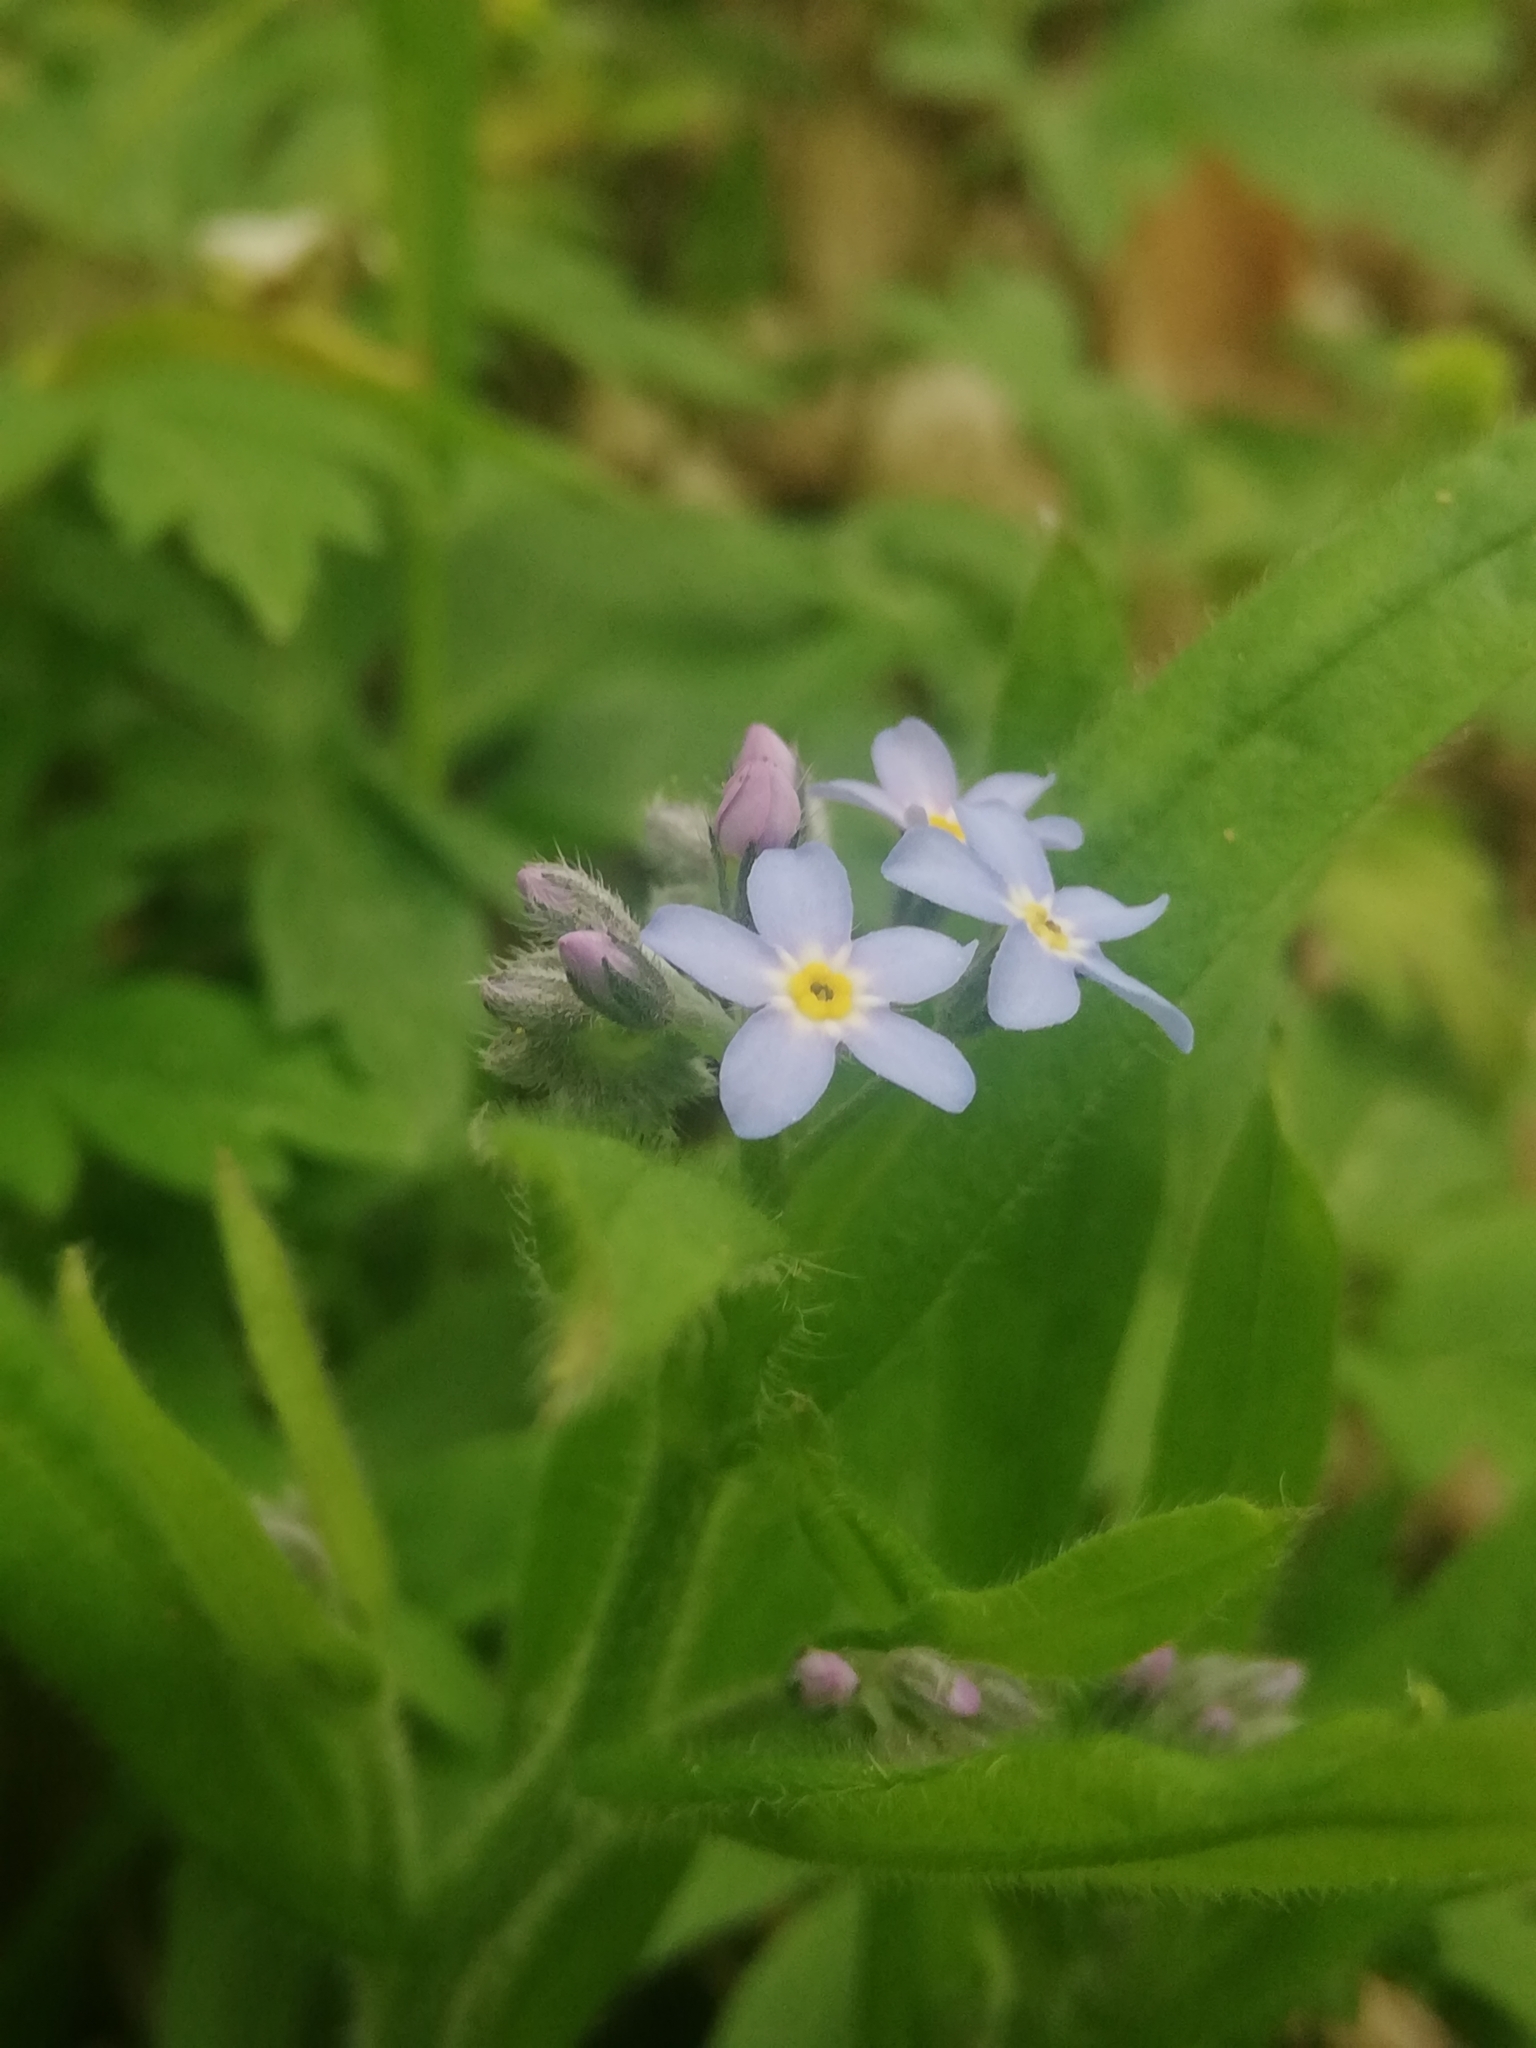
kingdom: Plantae
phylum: Tracheophyta
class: Magnoliopsida
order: Boraginales
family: Boraginaceae
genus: Myosotis
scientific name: Myosotis sylvatica
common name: Wood forget-me-not
